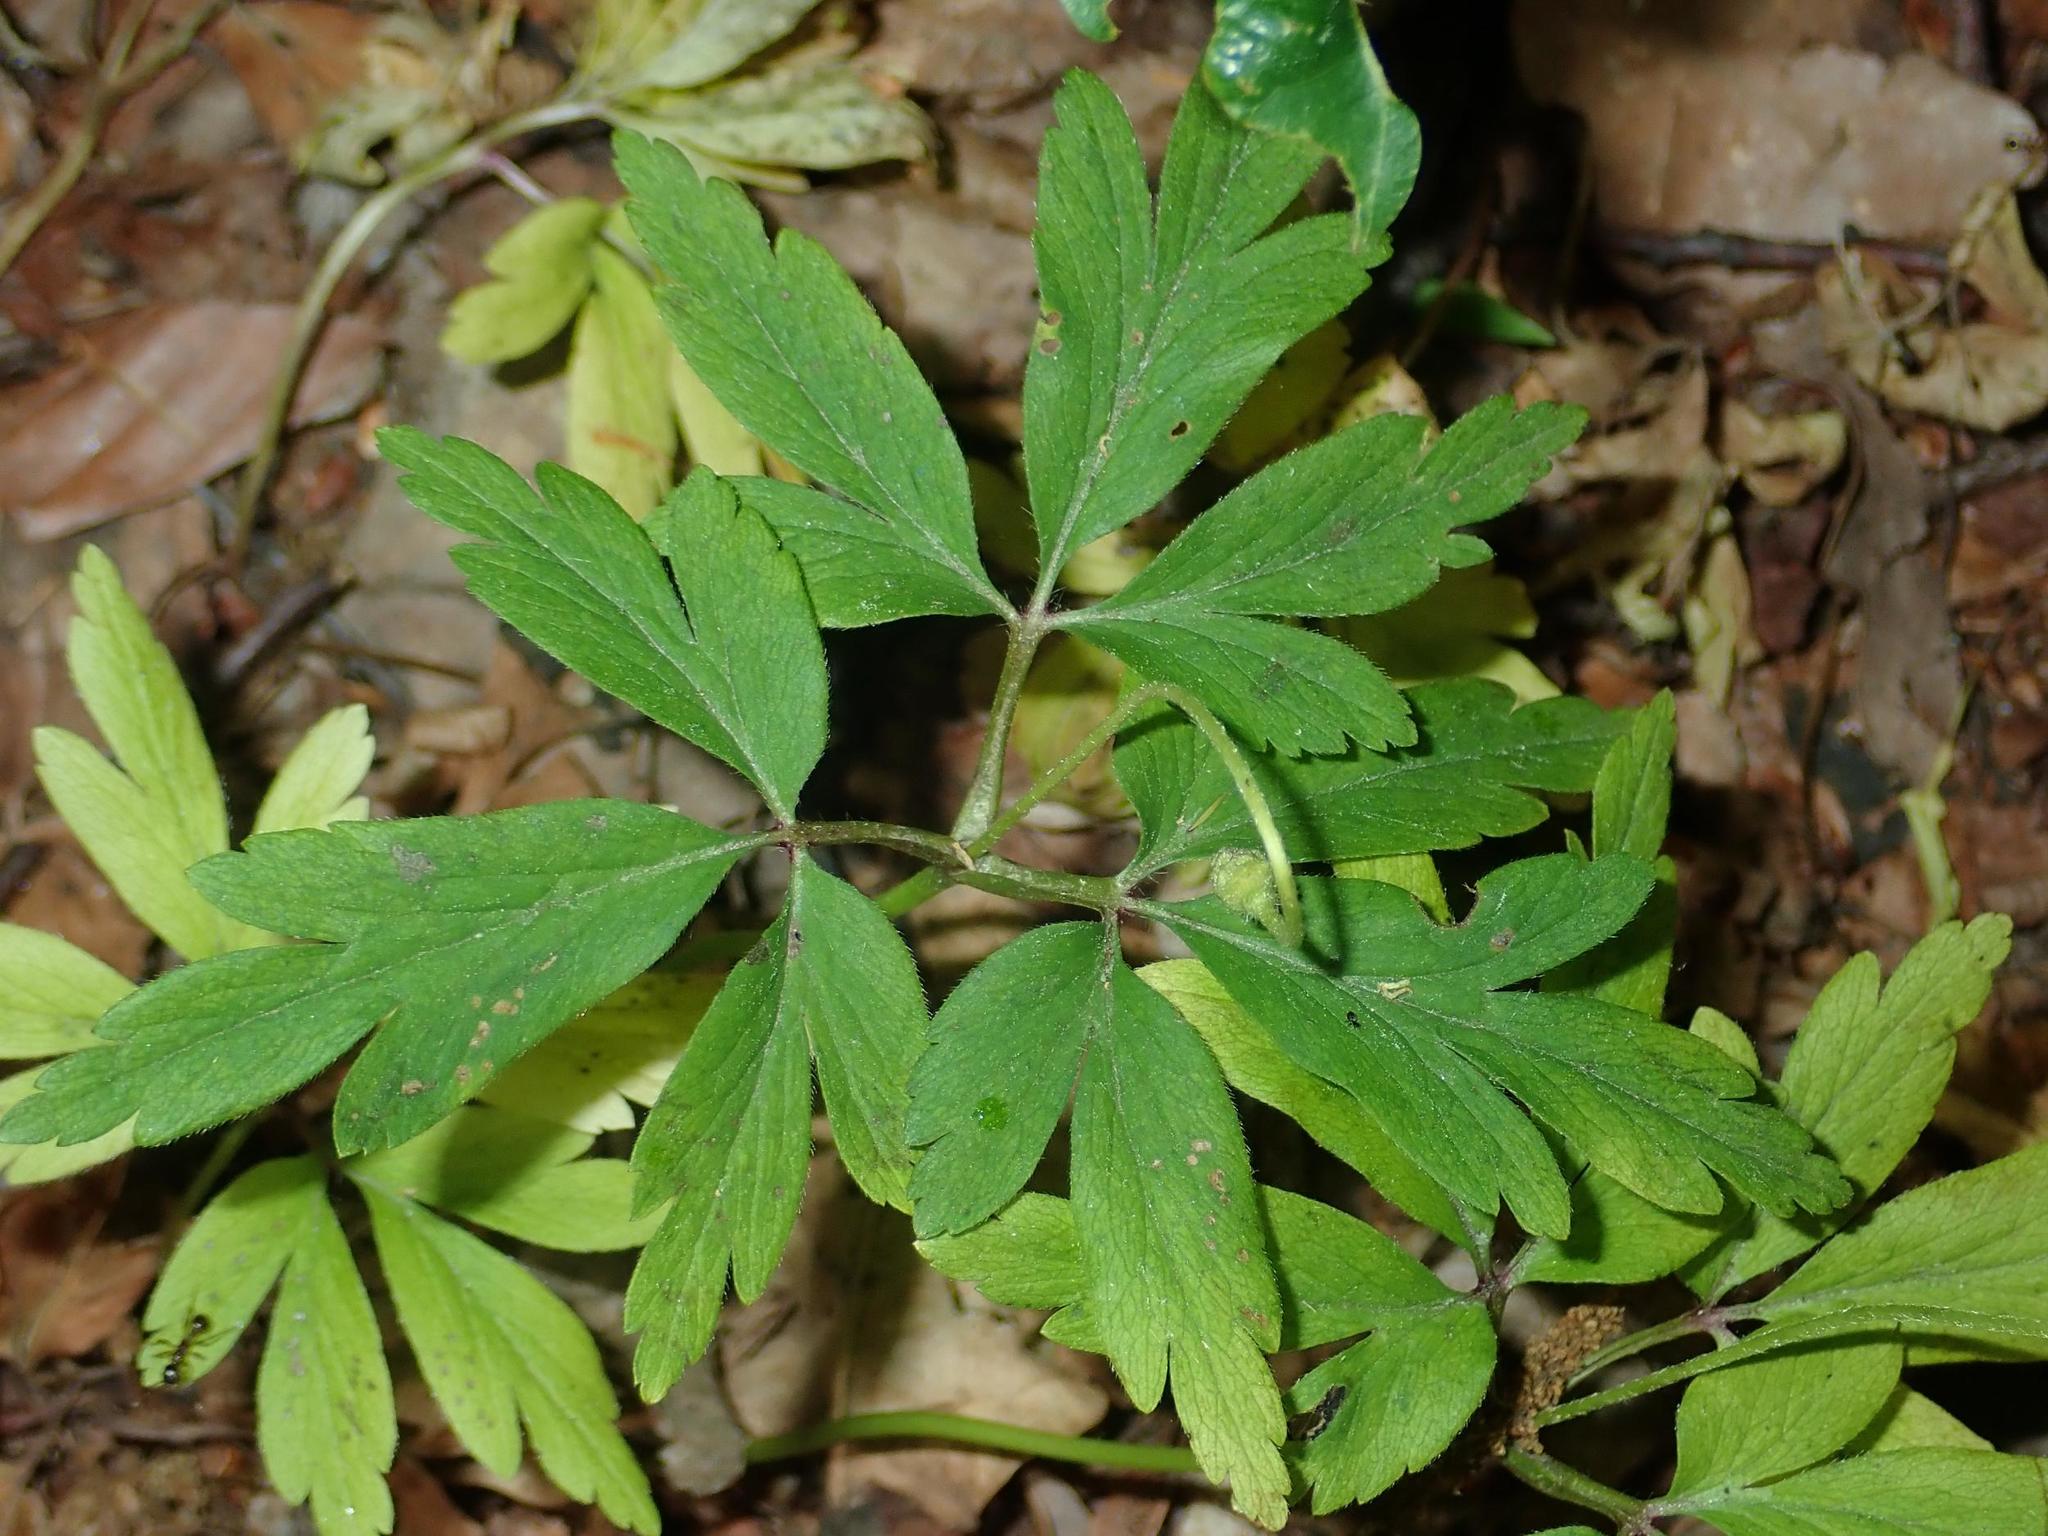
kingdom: Plantae
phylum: Tracheophyta
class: Magnoliopsida
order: Ranunculales
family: Ranunculaceae
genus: Anemone
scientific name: Anemone nemorosa
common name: Wood anemone
